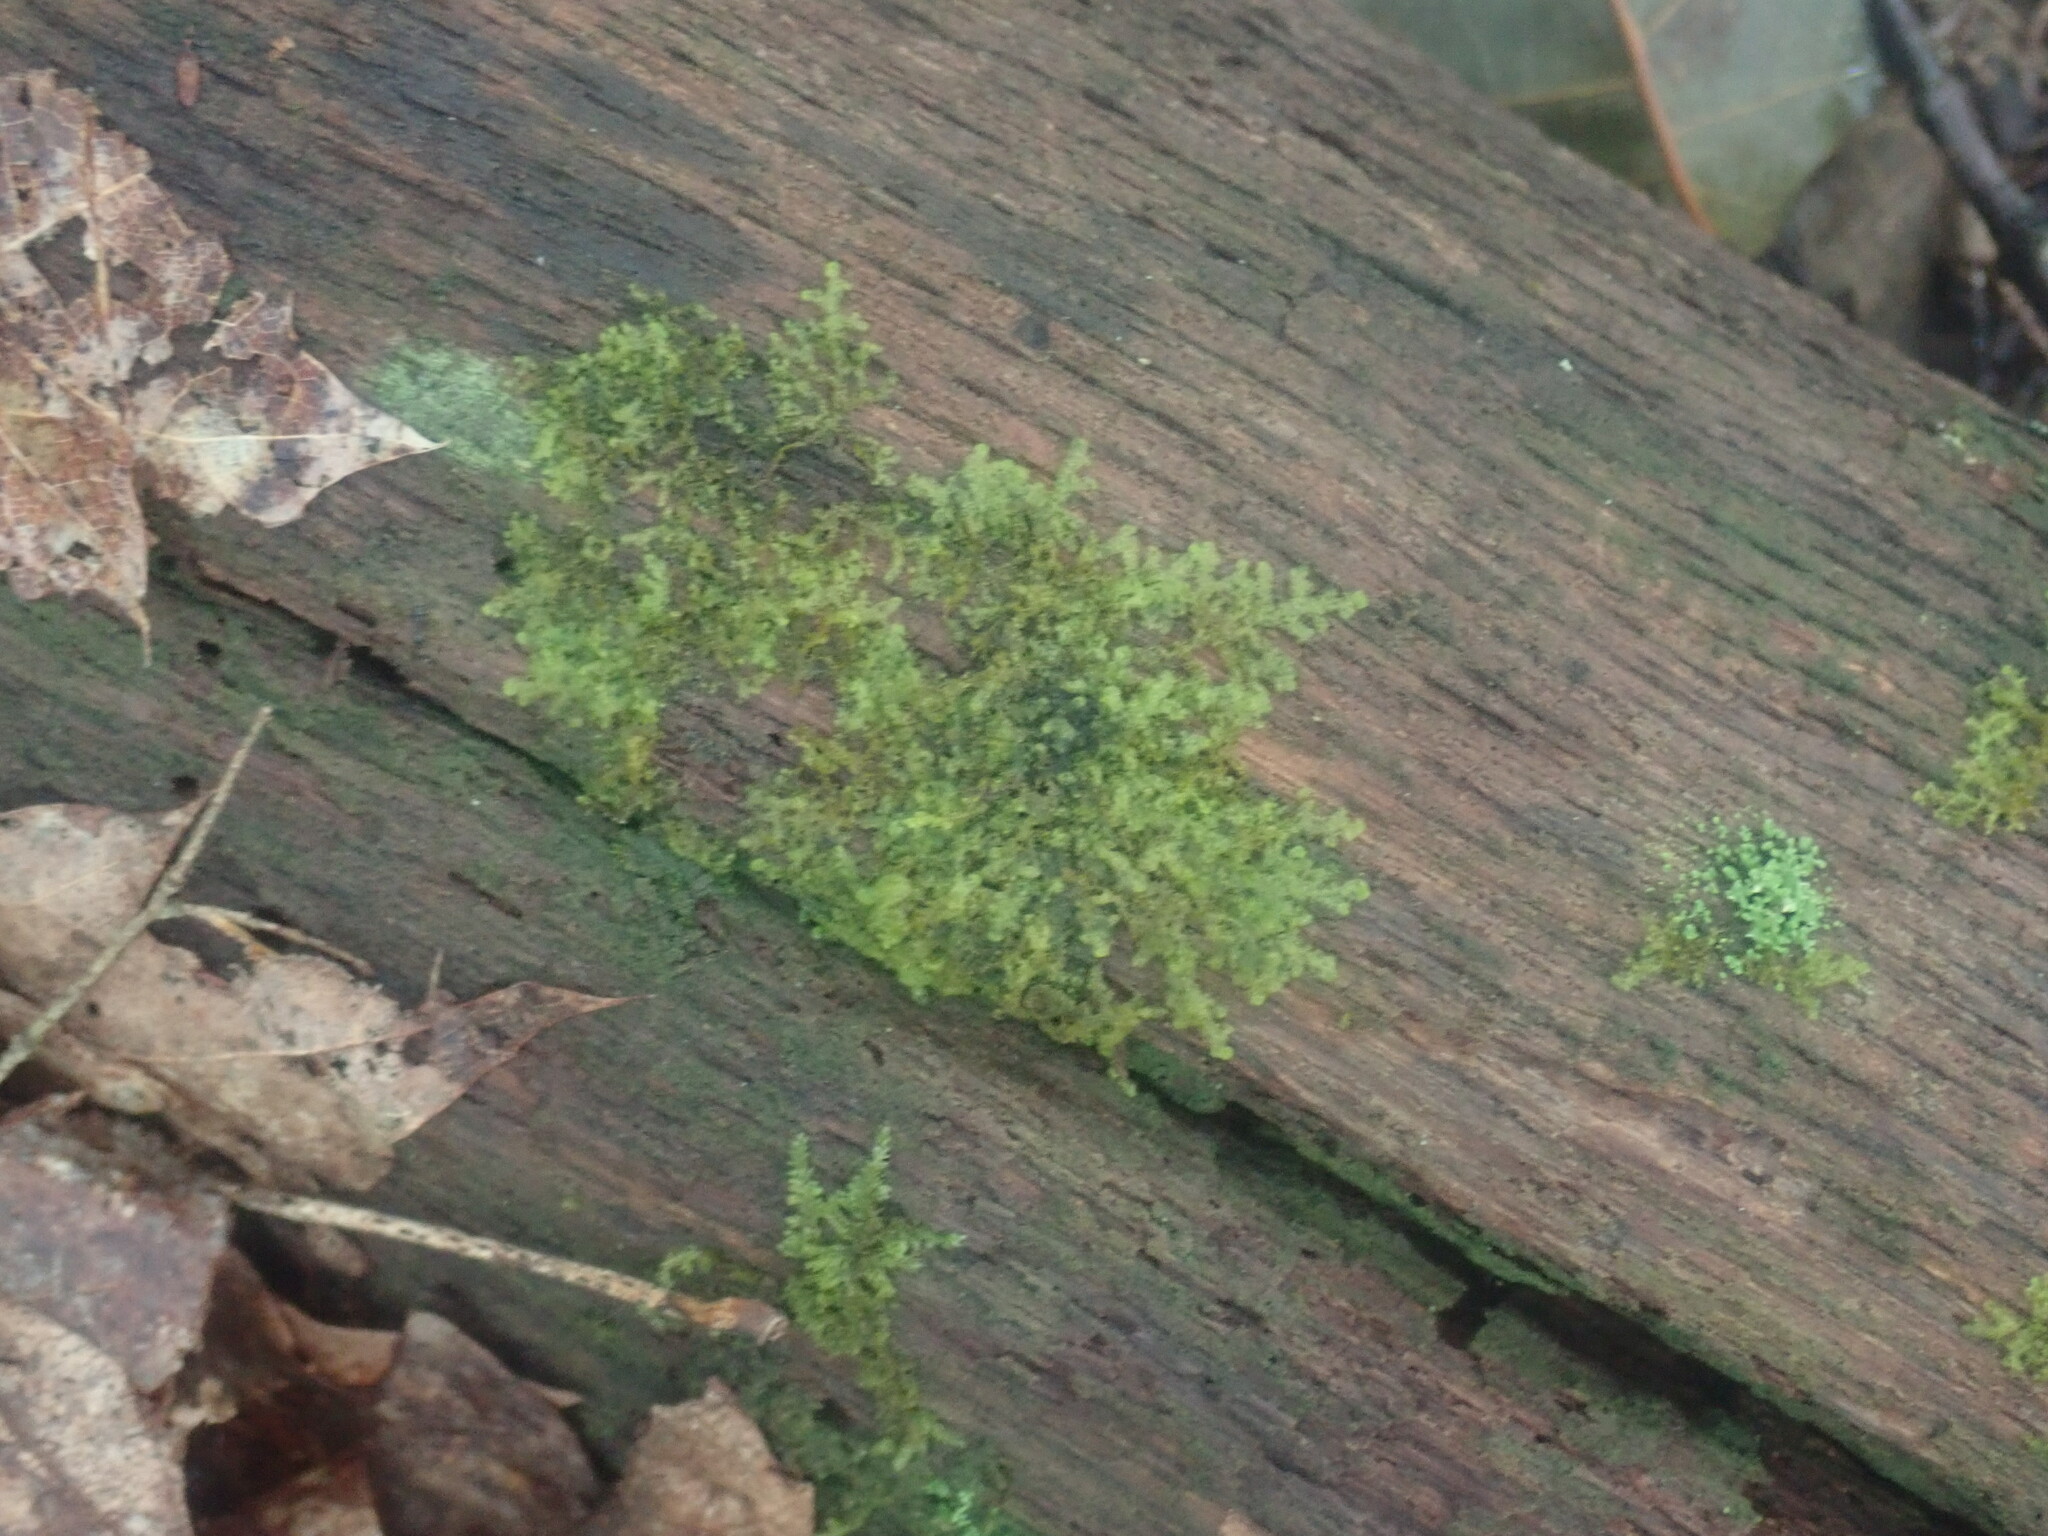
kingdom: Plantae
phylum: Marchantiophyta
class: Jungermanniopsida
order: Ptilidiales
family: Ptilidiaceae
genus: Ptilidium
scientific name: Ptilidium pulcherrimum
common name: Tree fringewort
